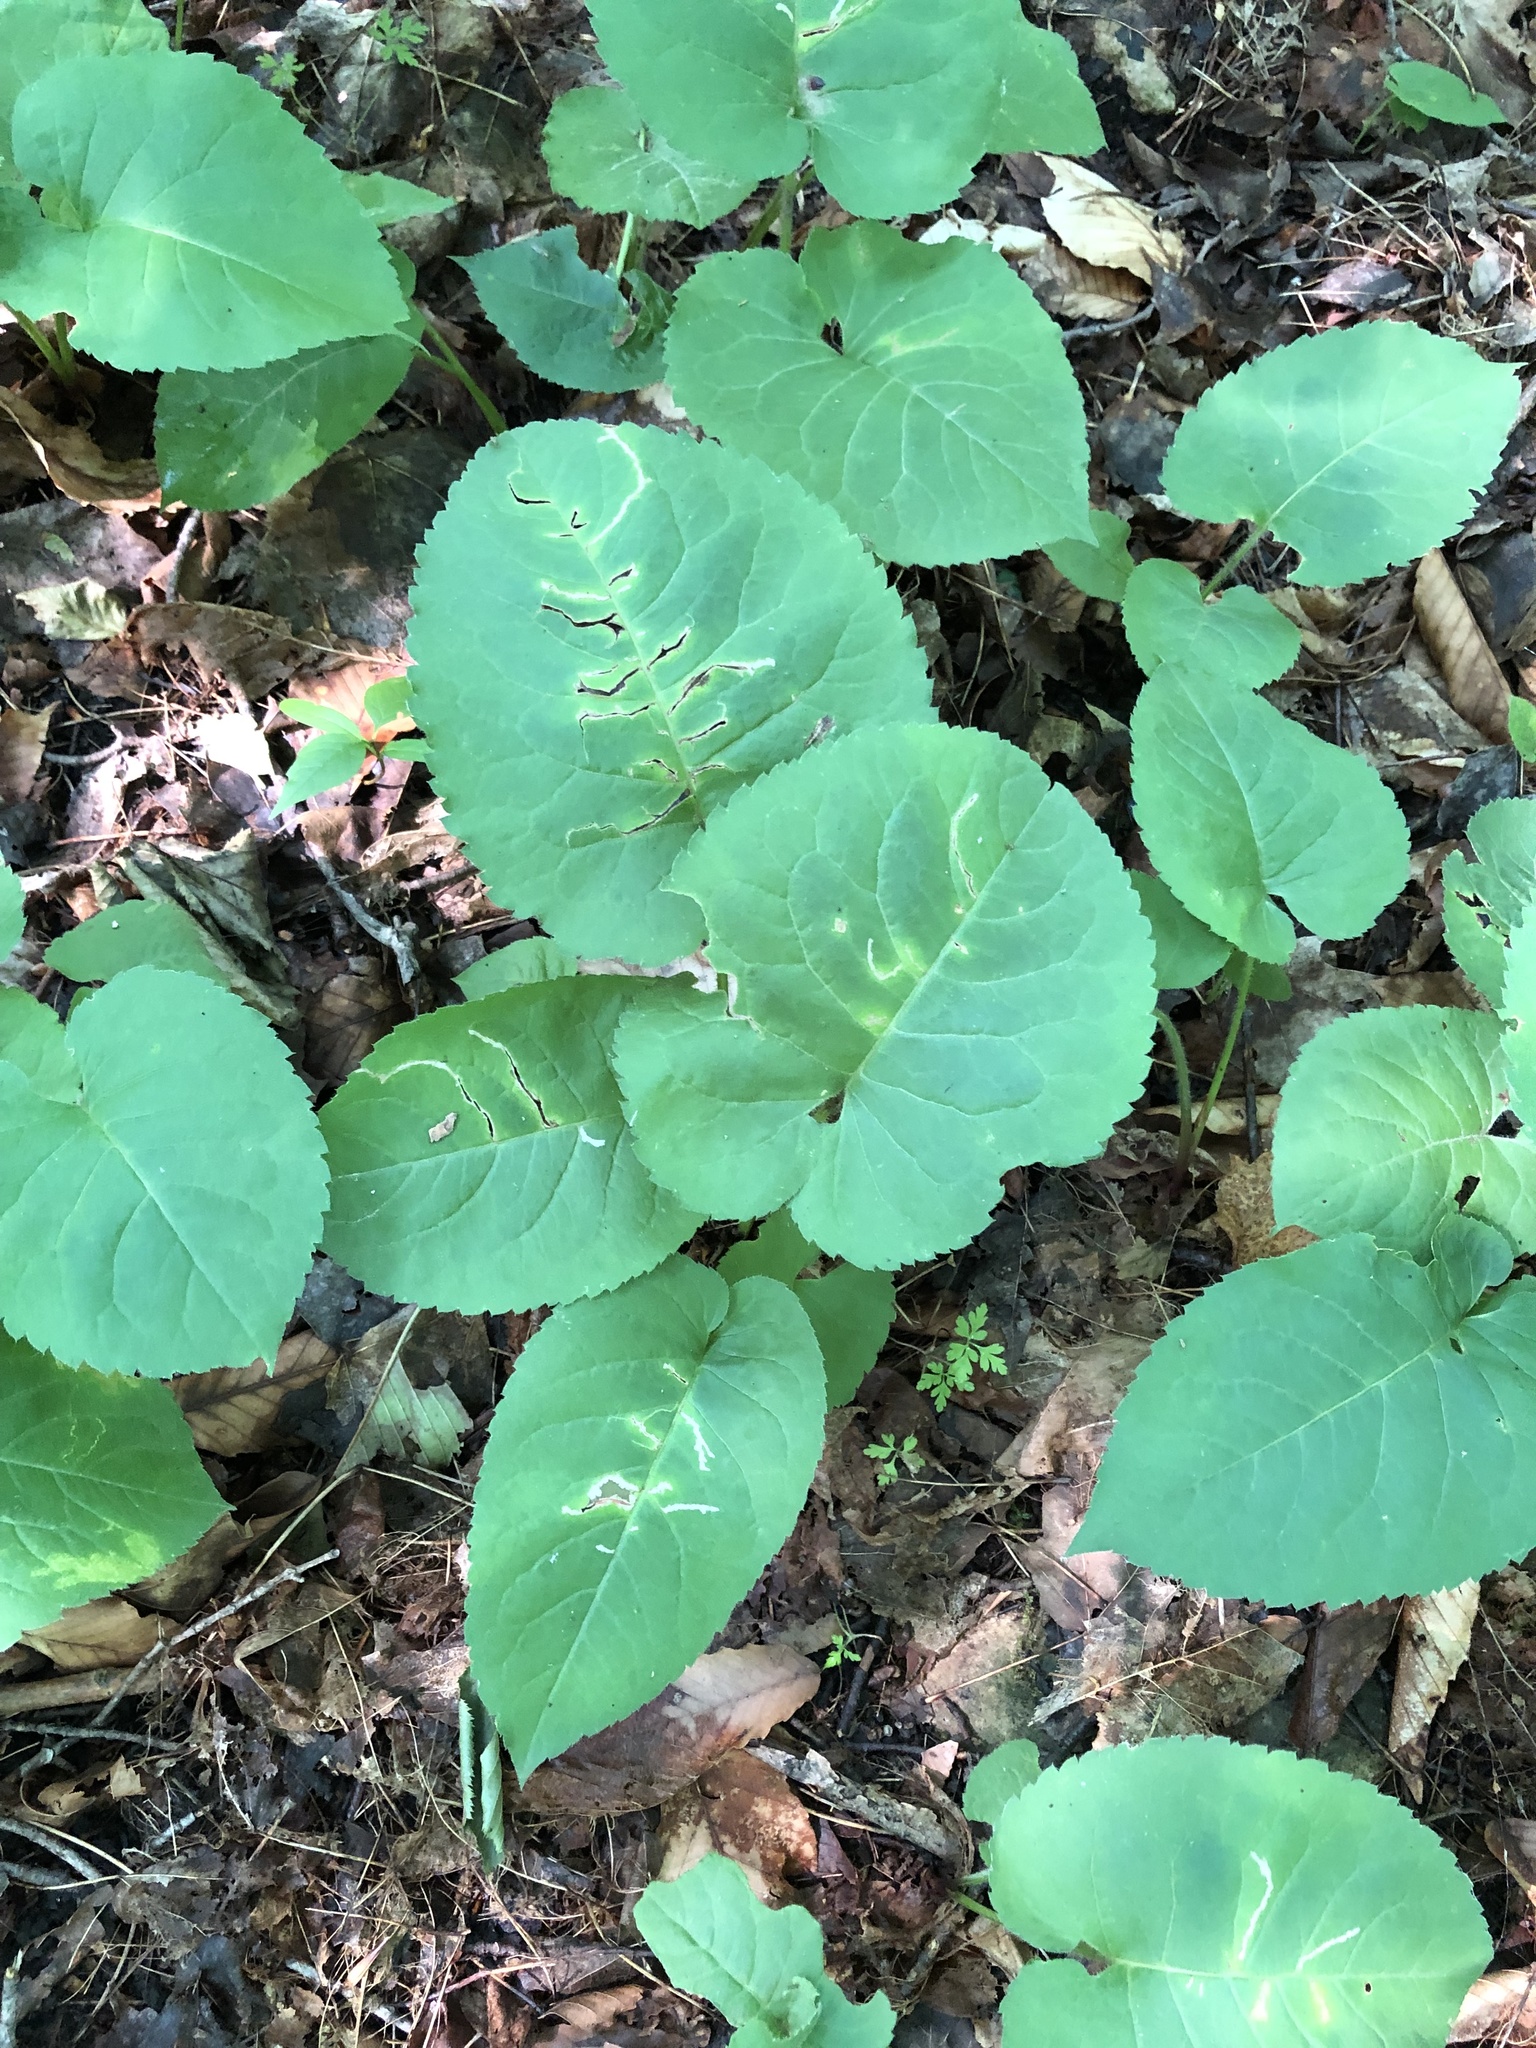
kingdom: Plantae
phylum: Tracheophyta
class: Magnoliopsida
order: Asterales
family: Asteraceae
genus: Eurybia
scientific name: Eurybia macrophylla
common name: Big-leaved aster
